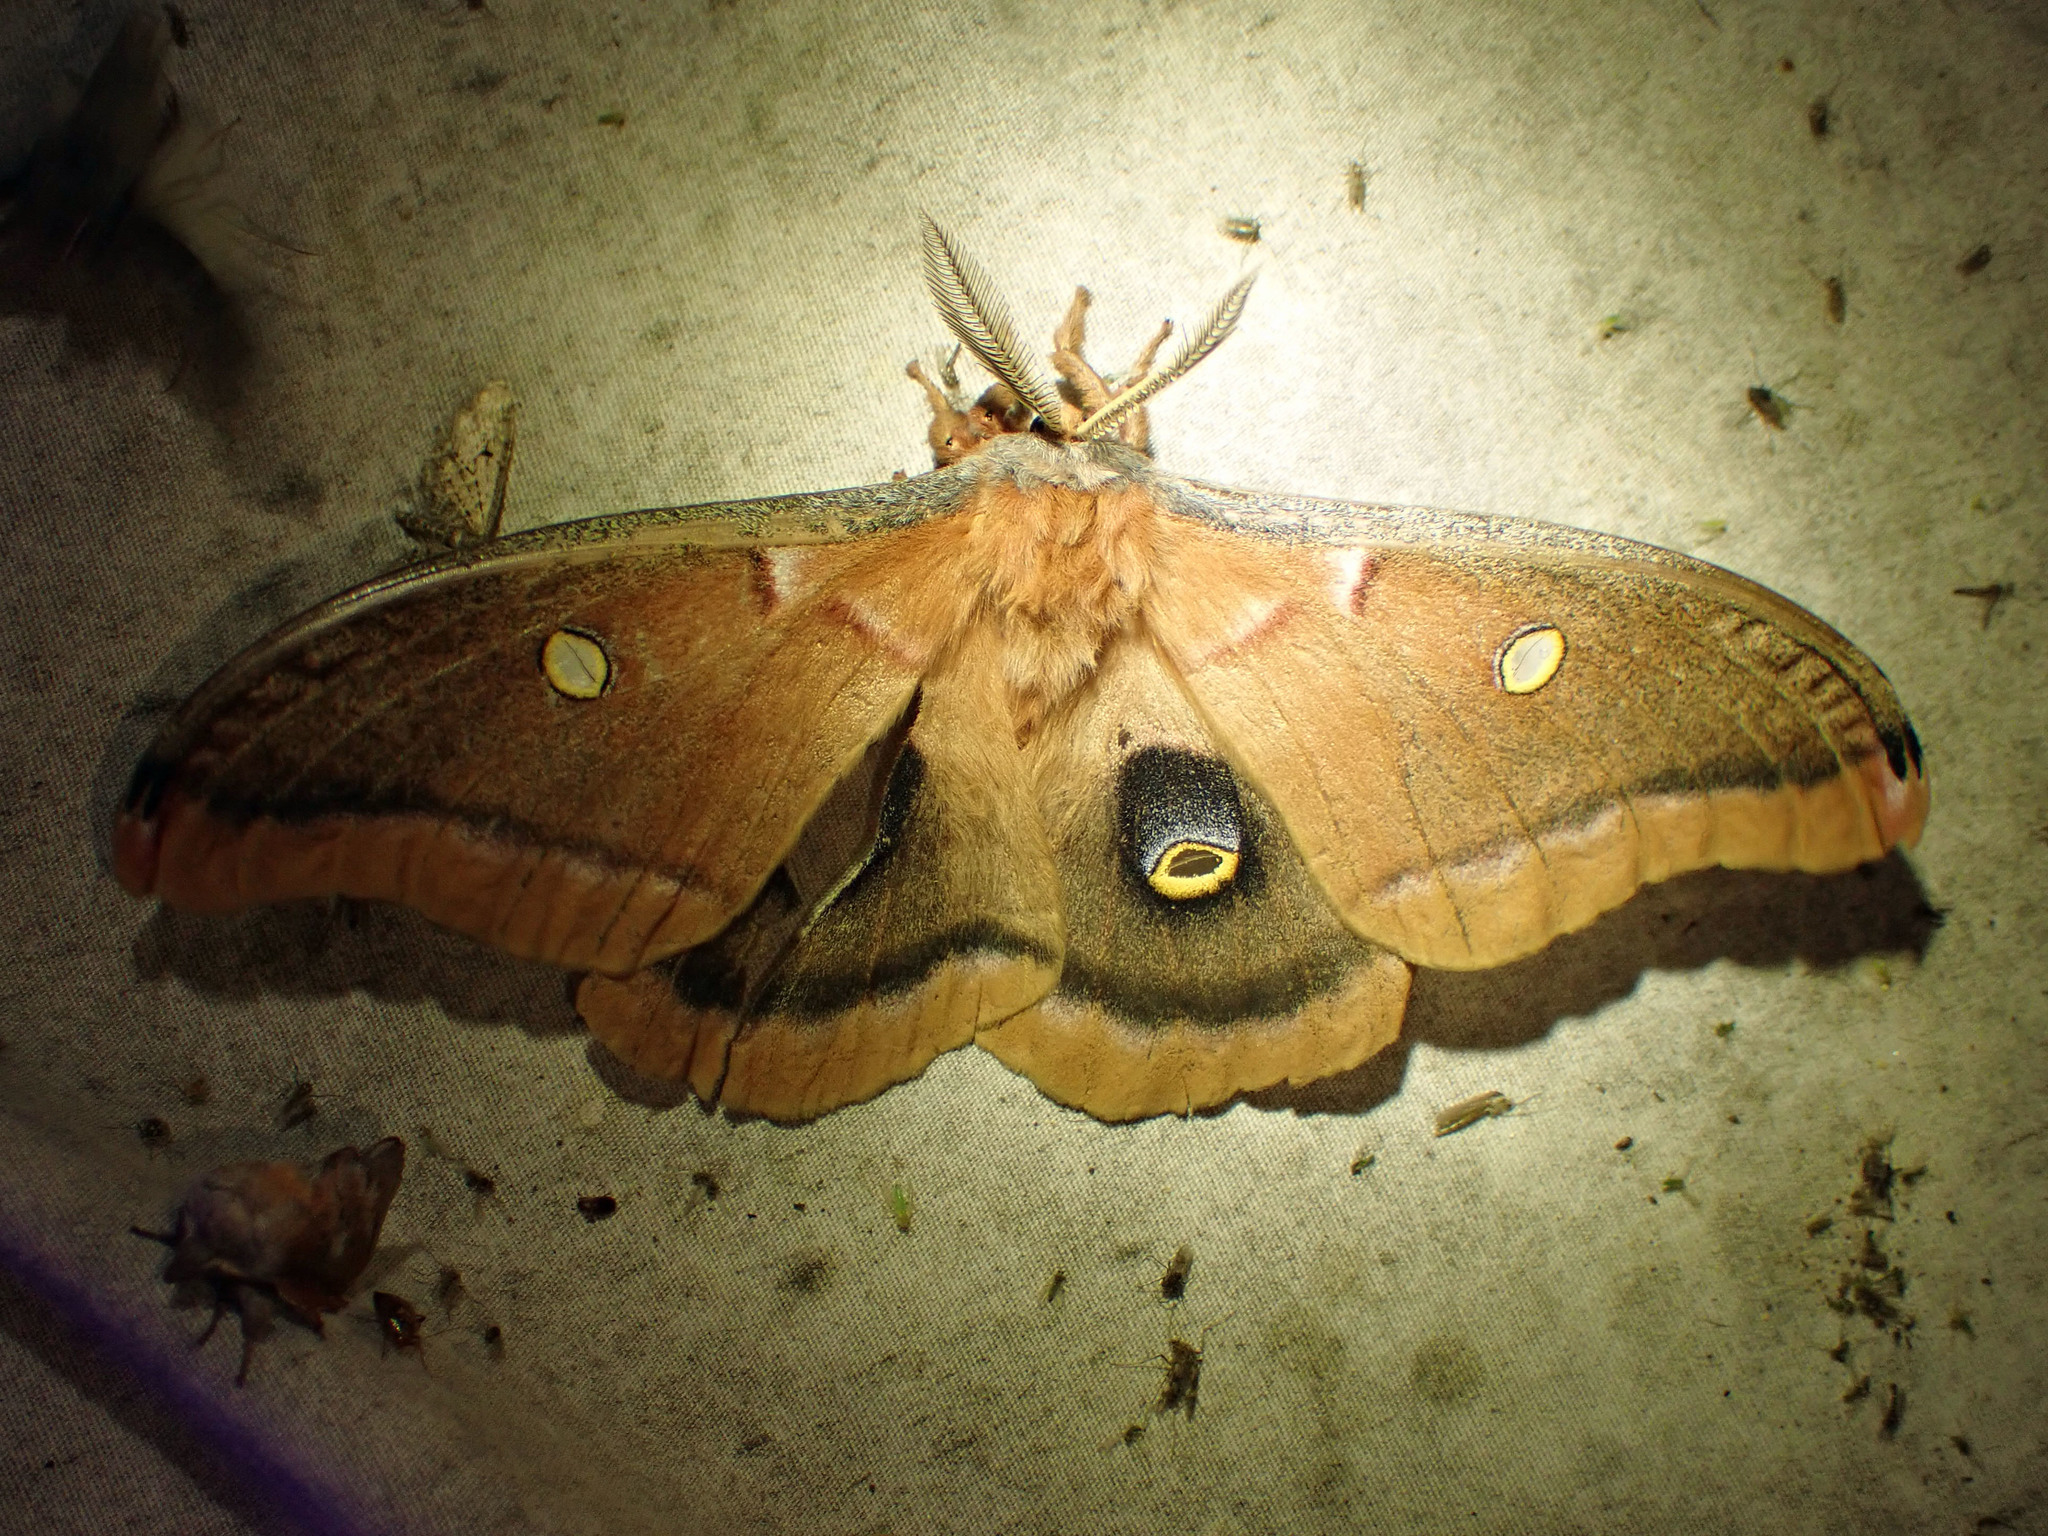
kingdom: Animalia
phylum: Arthropoda
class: Insecta
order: Lepidoptera
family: Saturniidae
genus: Antheraea
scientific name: Antheraea polyphemus
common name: Polyphemus moth
